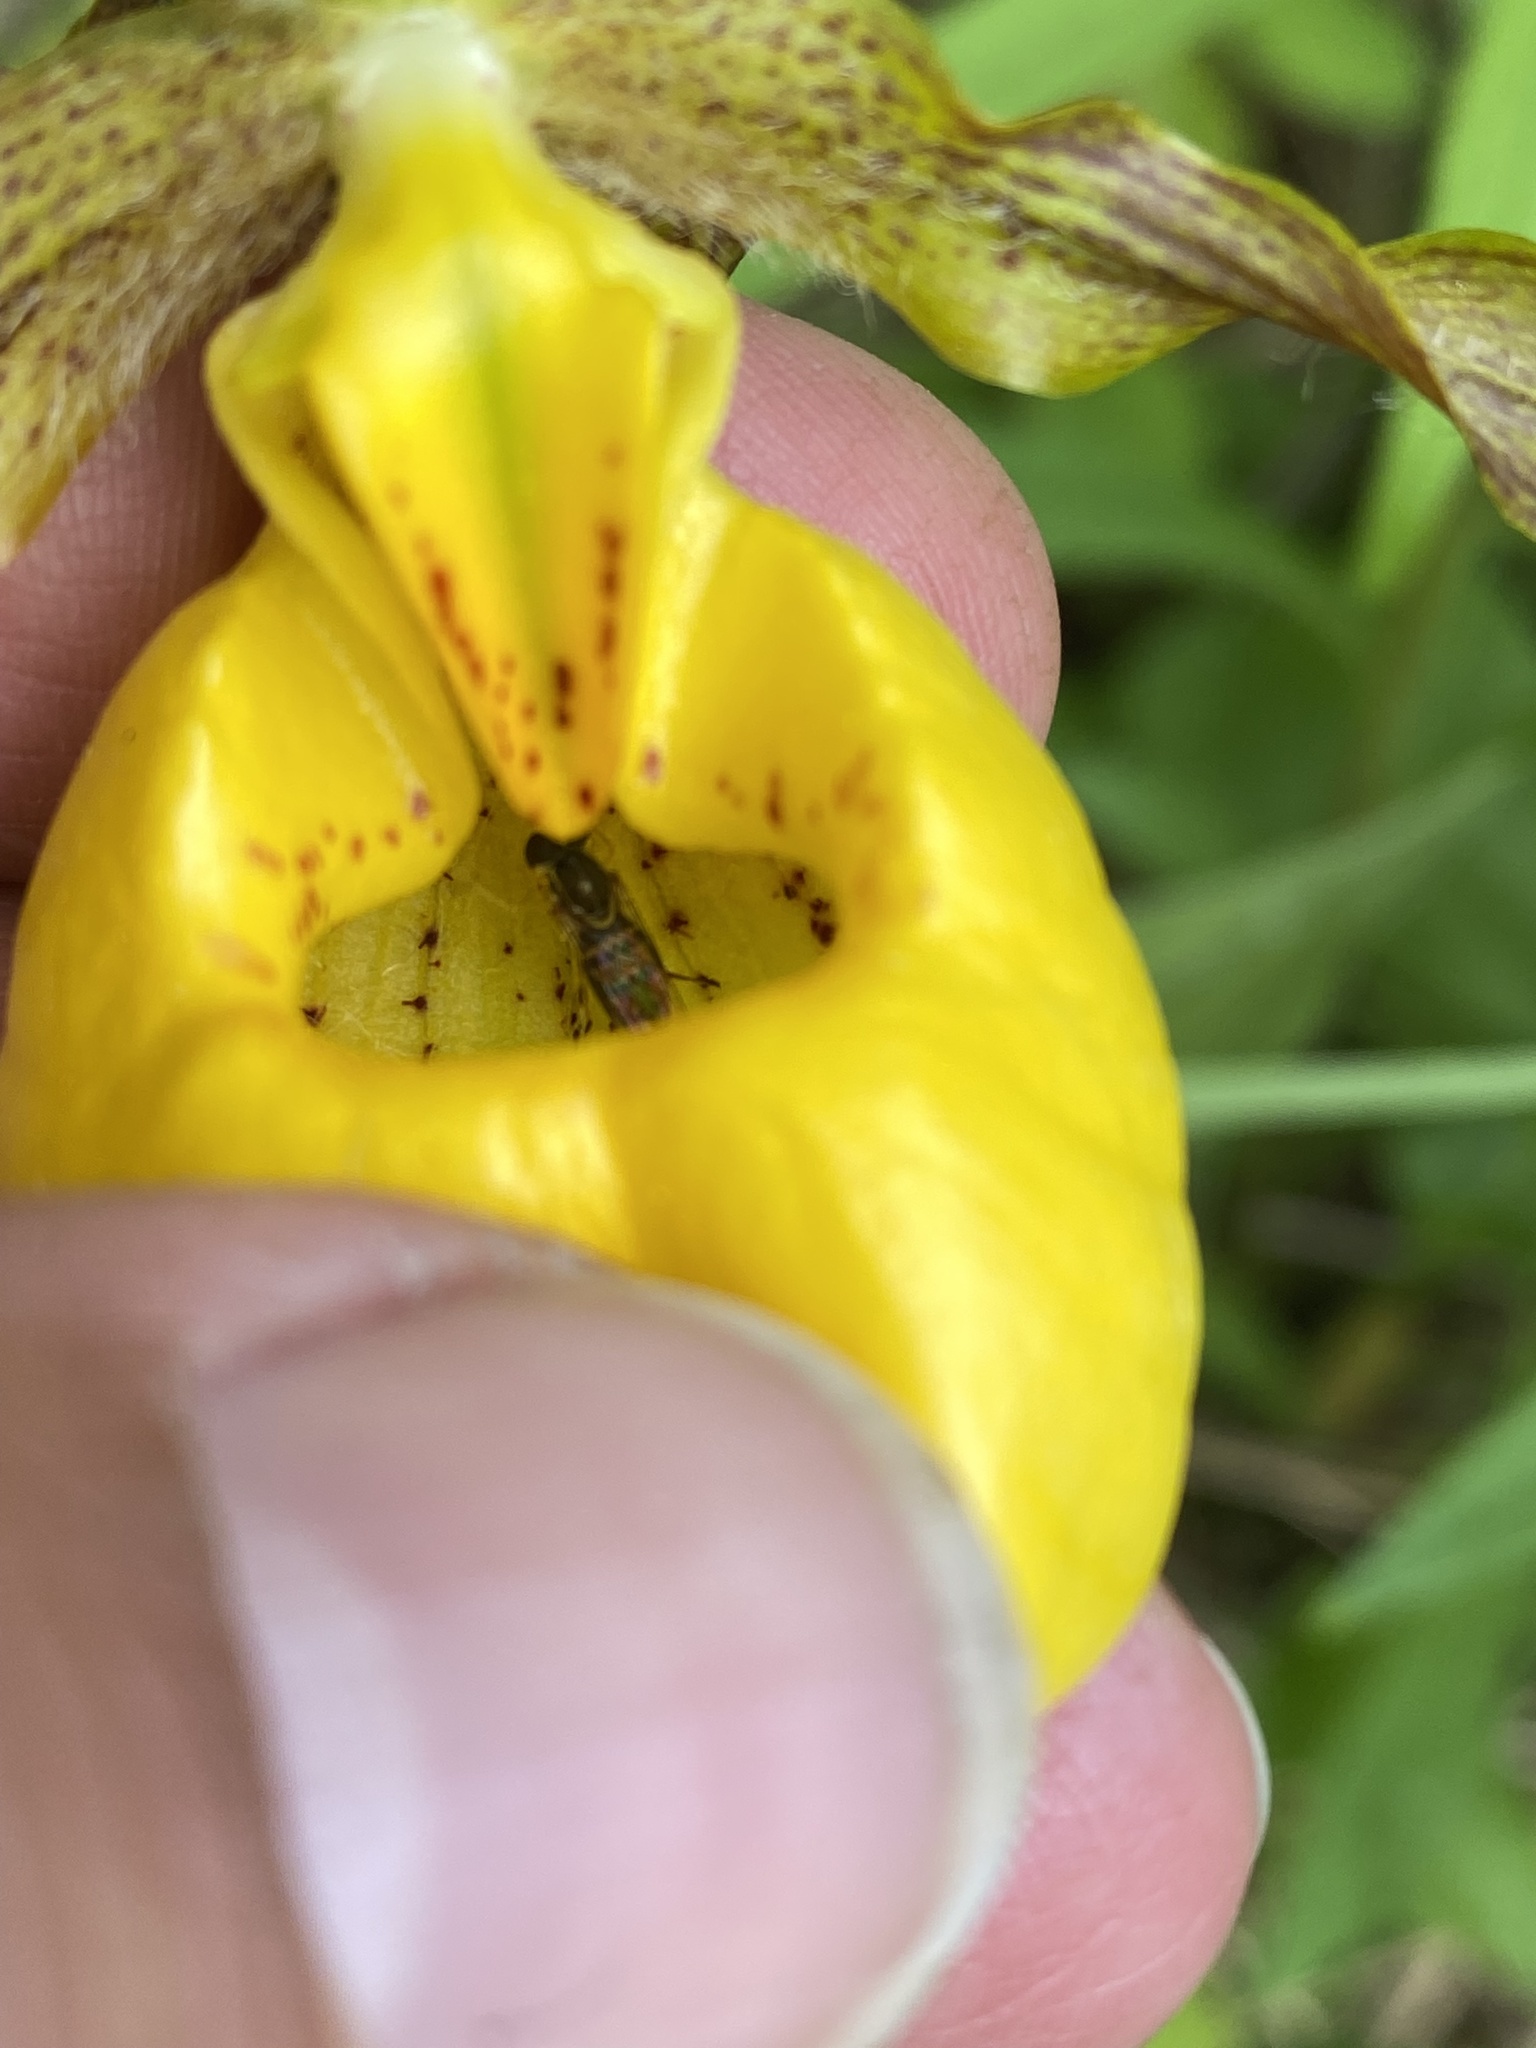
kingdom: Animalia
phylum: Arthropoda
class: Insecta
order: Diptera
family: Syrphidae
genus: Toxomerus
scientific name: Toxomerus marginatus
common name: Syrphid fly
